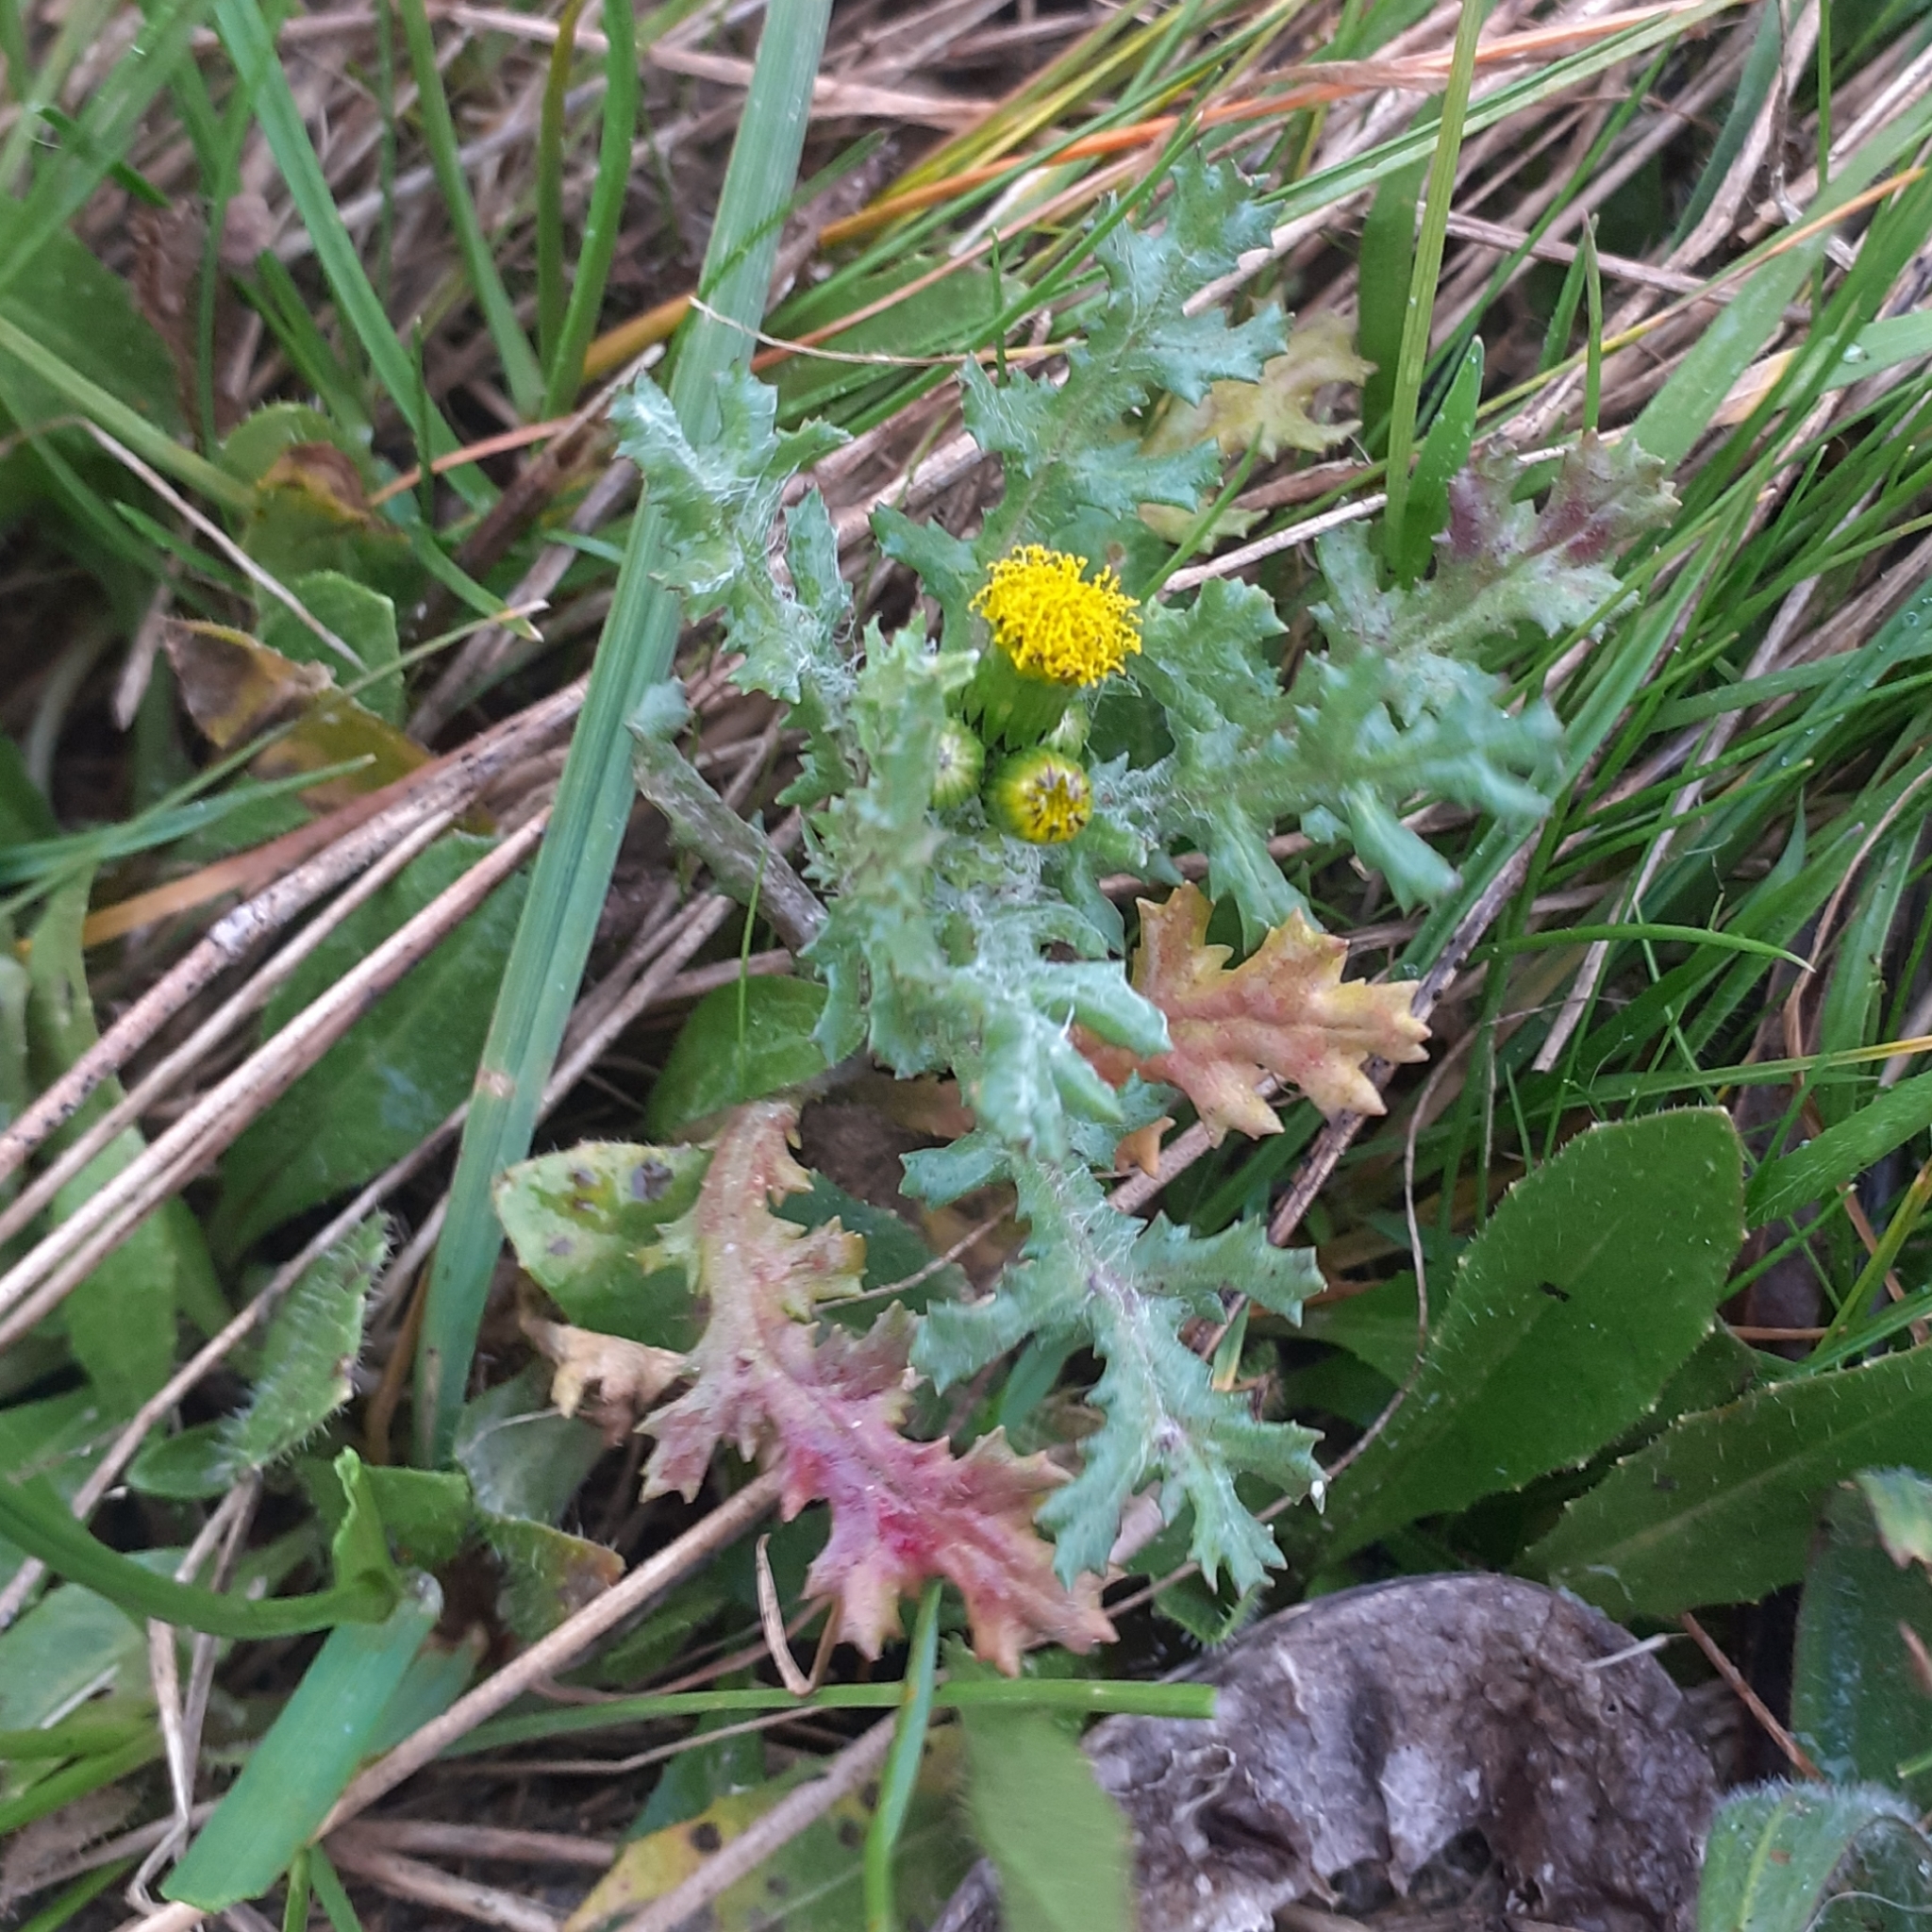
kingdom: Plantae
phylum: Tracheophyta
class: Magnoliopsida
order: Asterales
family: Asteraceae
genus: Senecio
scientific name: Senecio vulgaris
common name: Old-man-in-the-spring
